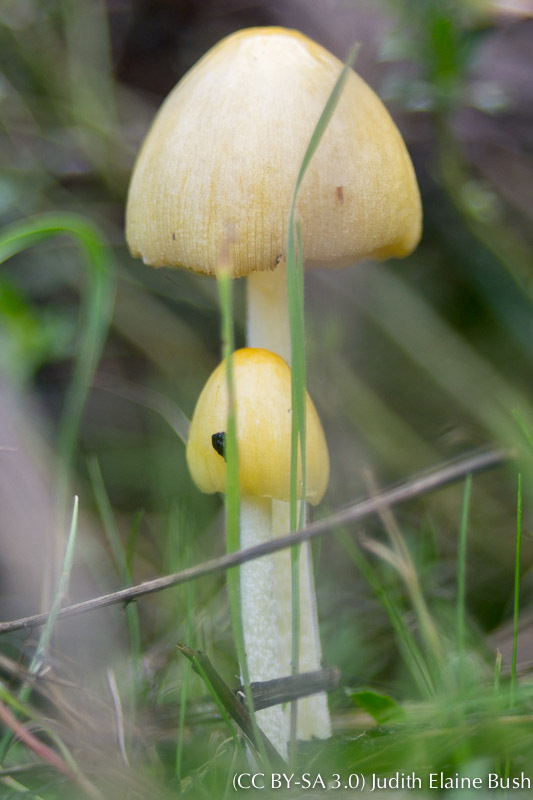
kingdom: Fungi
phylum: Basidiomycota
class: Agaricomycetes
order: Agaricales
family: Bolbitiaceae
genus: Bolbitius
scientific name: Bolbitius titubans
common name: Yellow fieldcap
